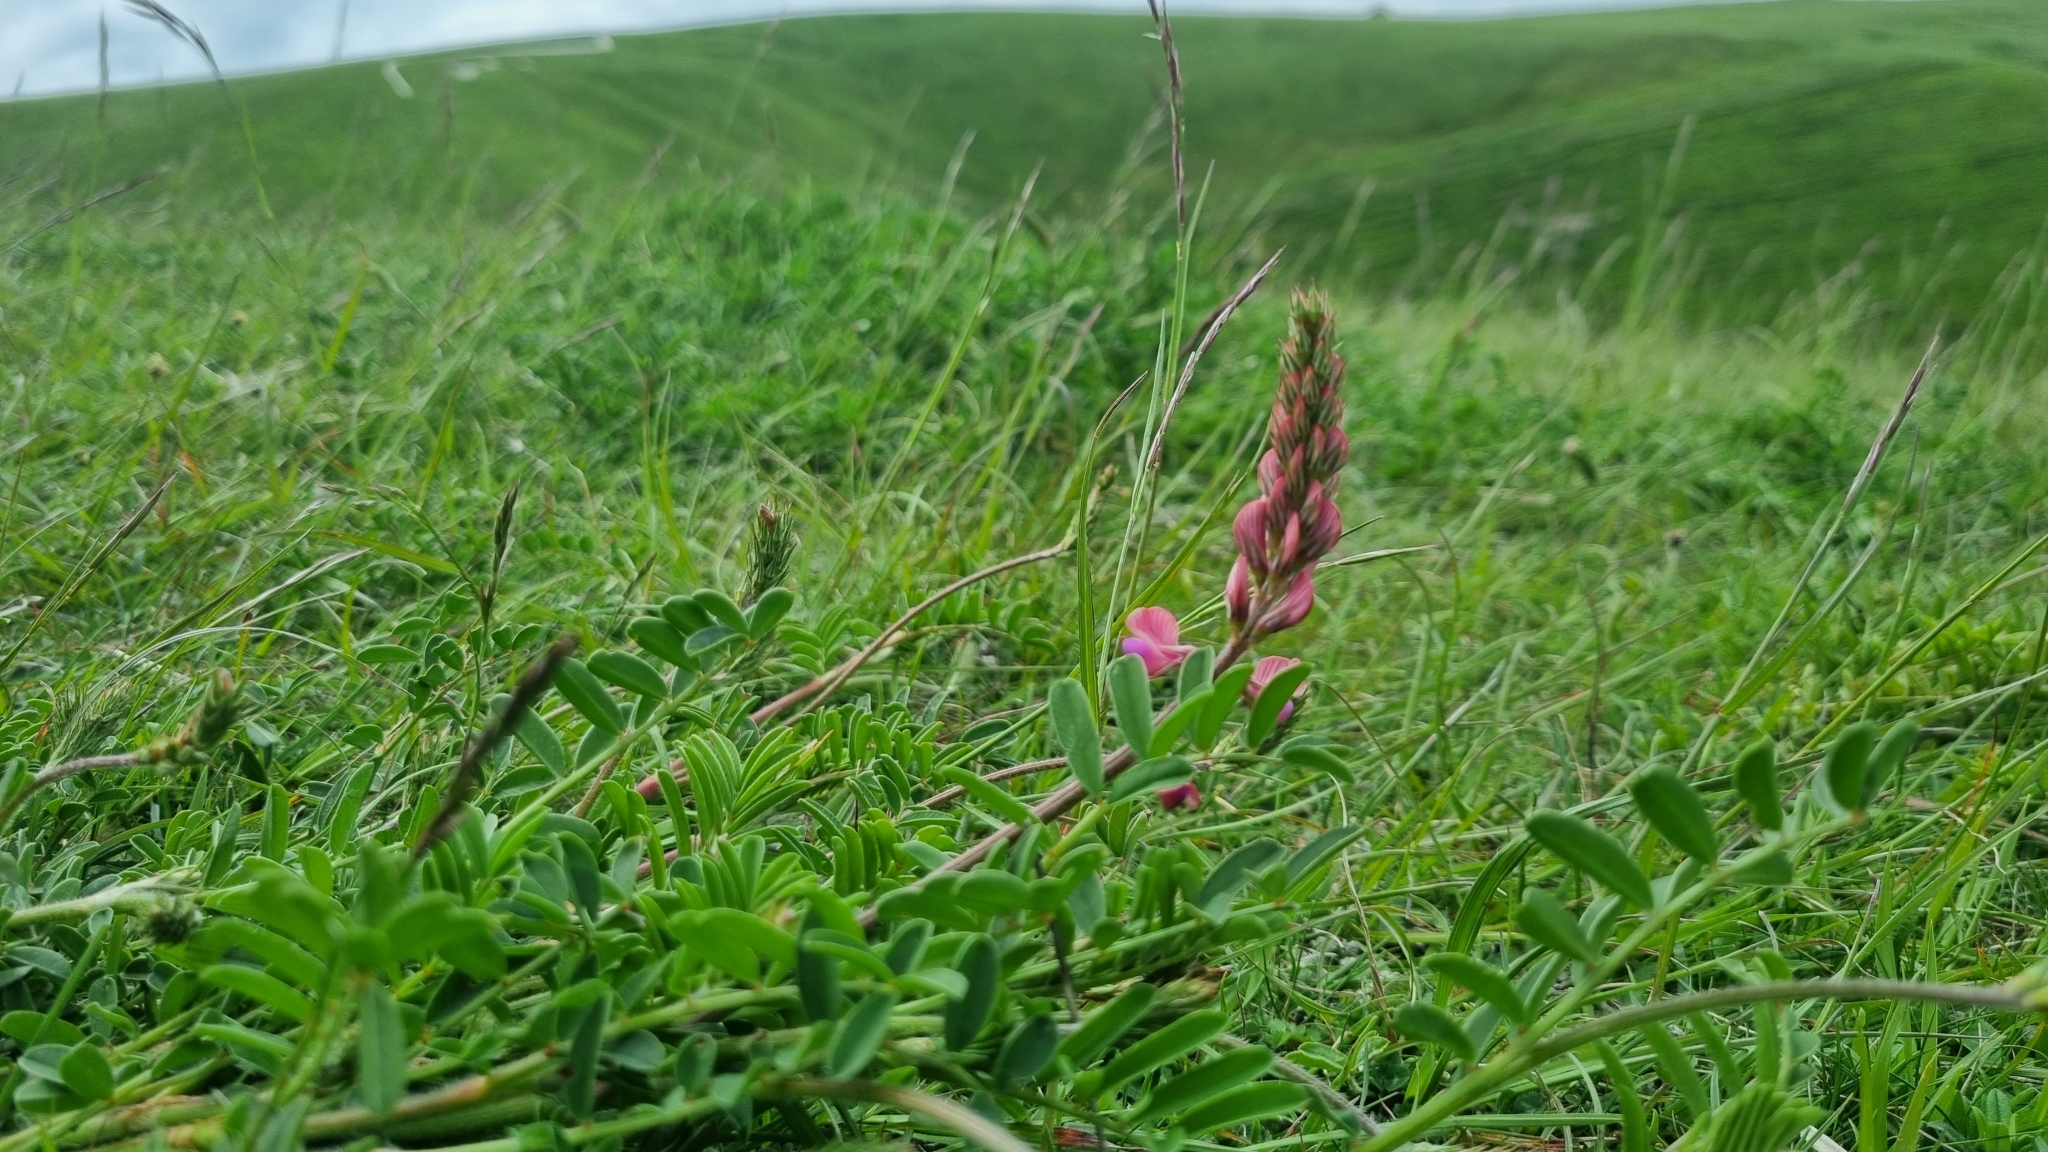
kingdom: Plantae
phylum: Tracheophyta
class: Magnoliopsida
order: Fabales
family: Fabaceae
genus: Onobrychis
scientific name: Onobrychis viciifolia
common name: Sainfoin
